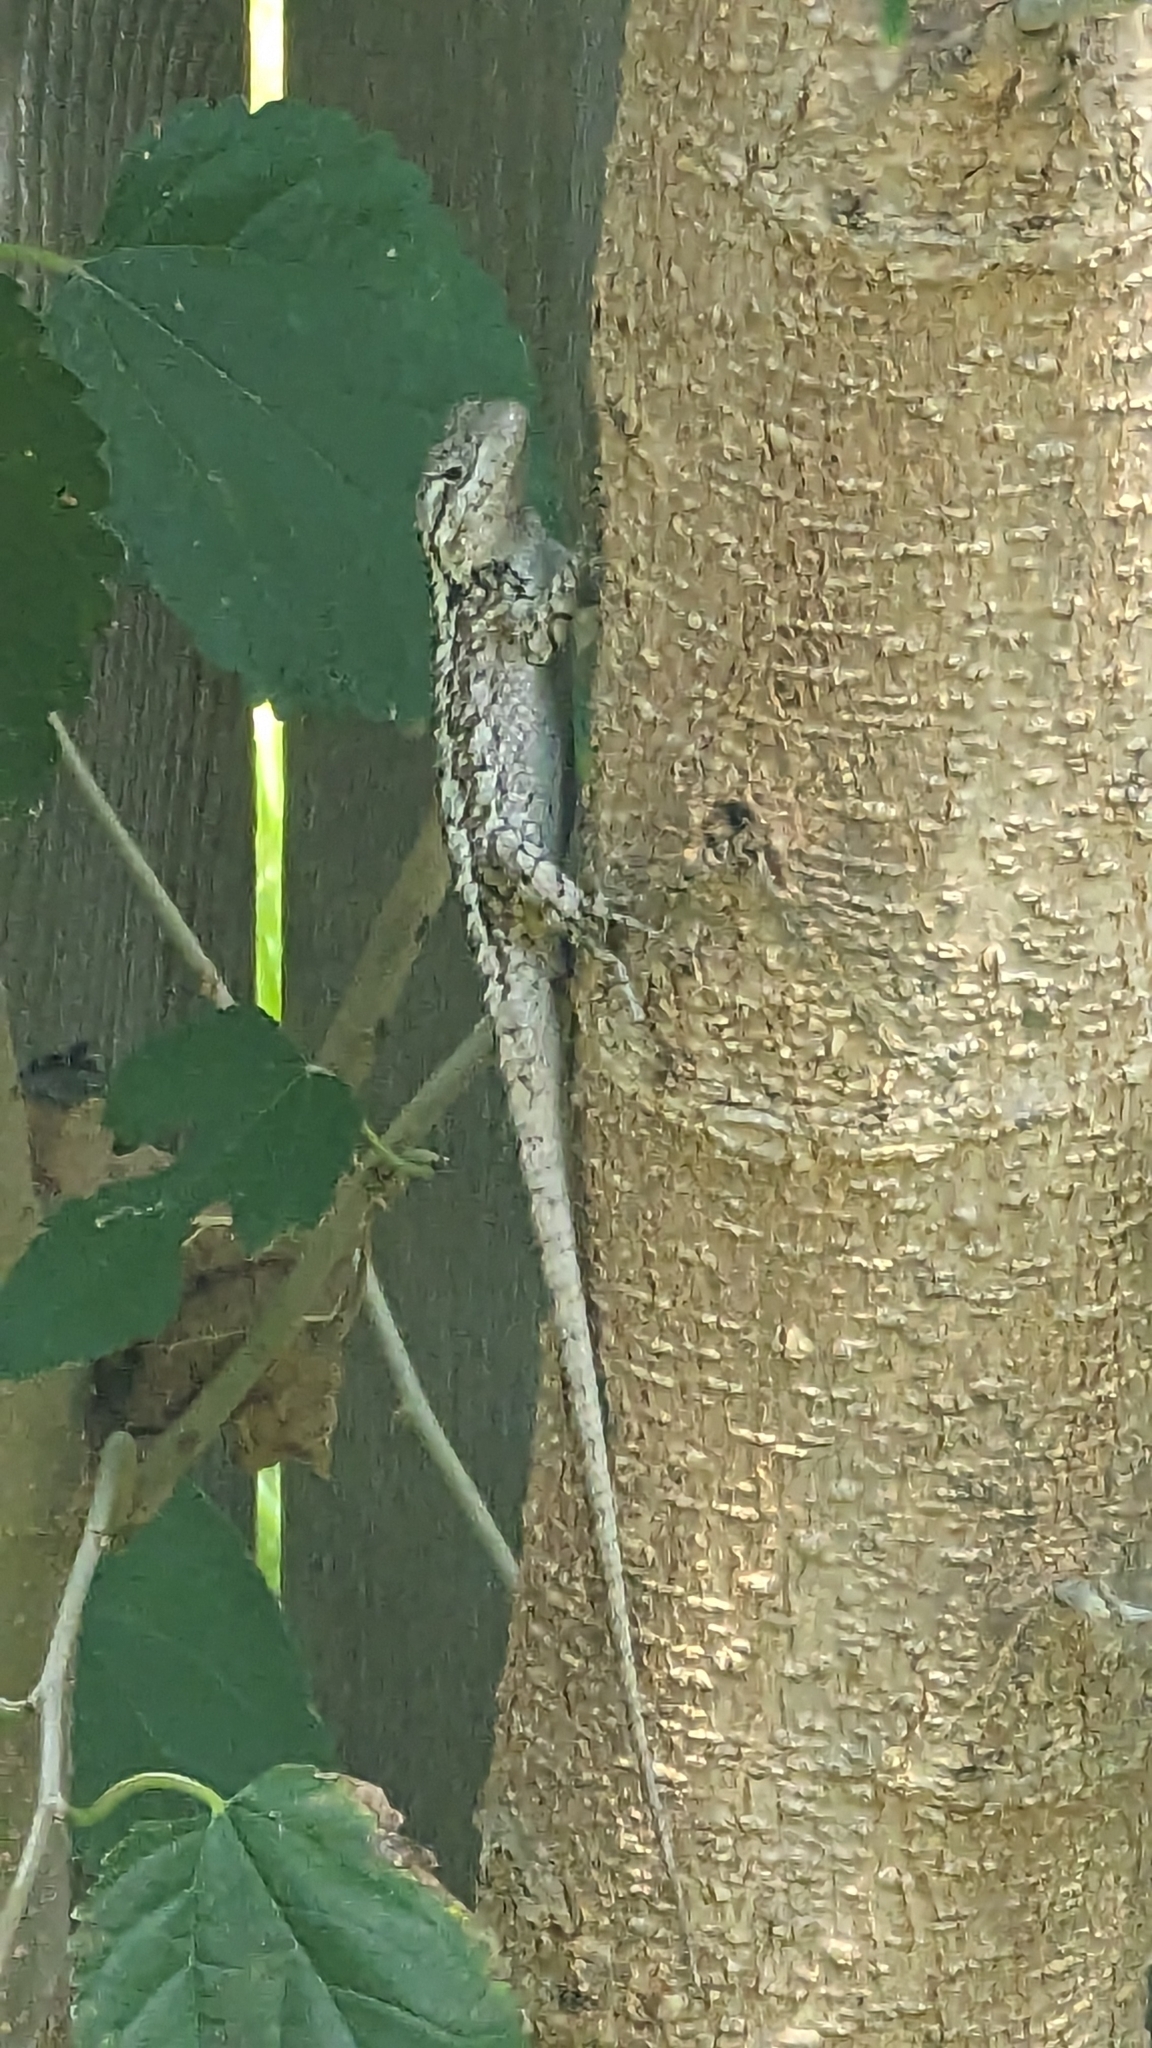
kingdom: Animalia
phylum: Chordata
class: Squamata
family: Phrynosomatidae
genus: Sceloporus
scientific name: Sceloporus olivaceus
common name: Texas spiny lizard
